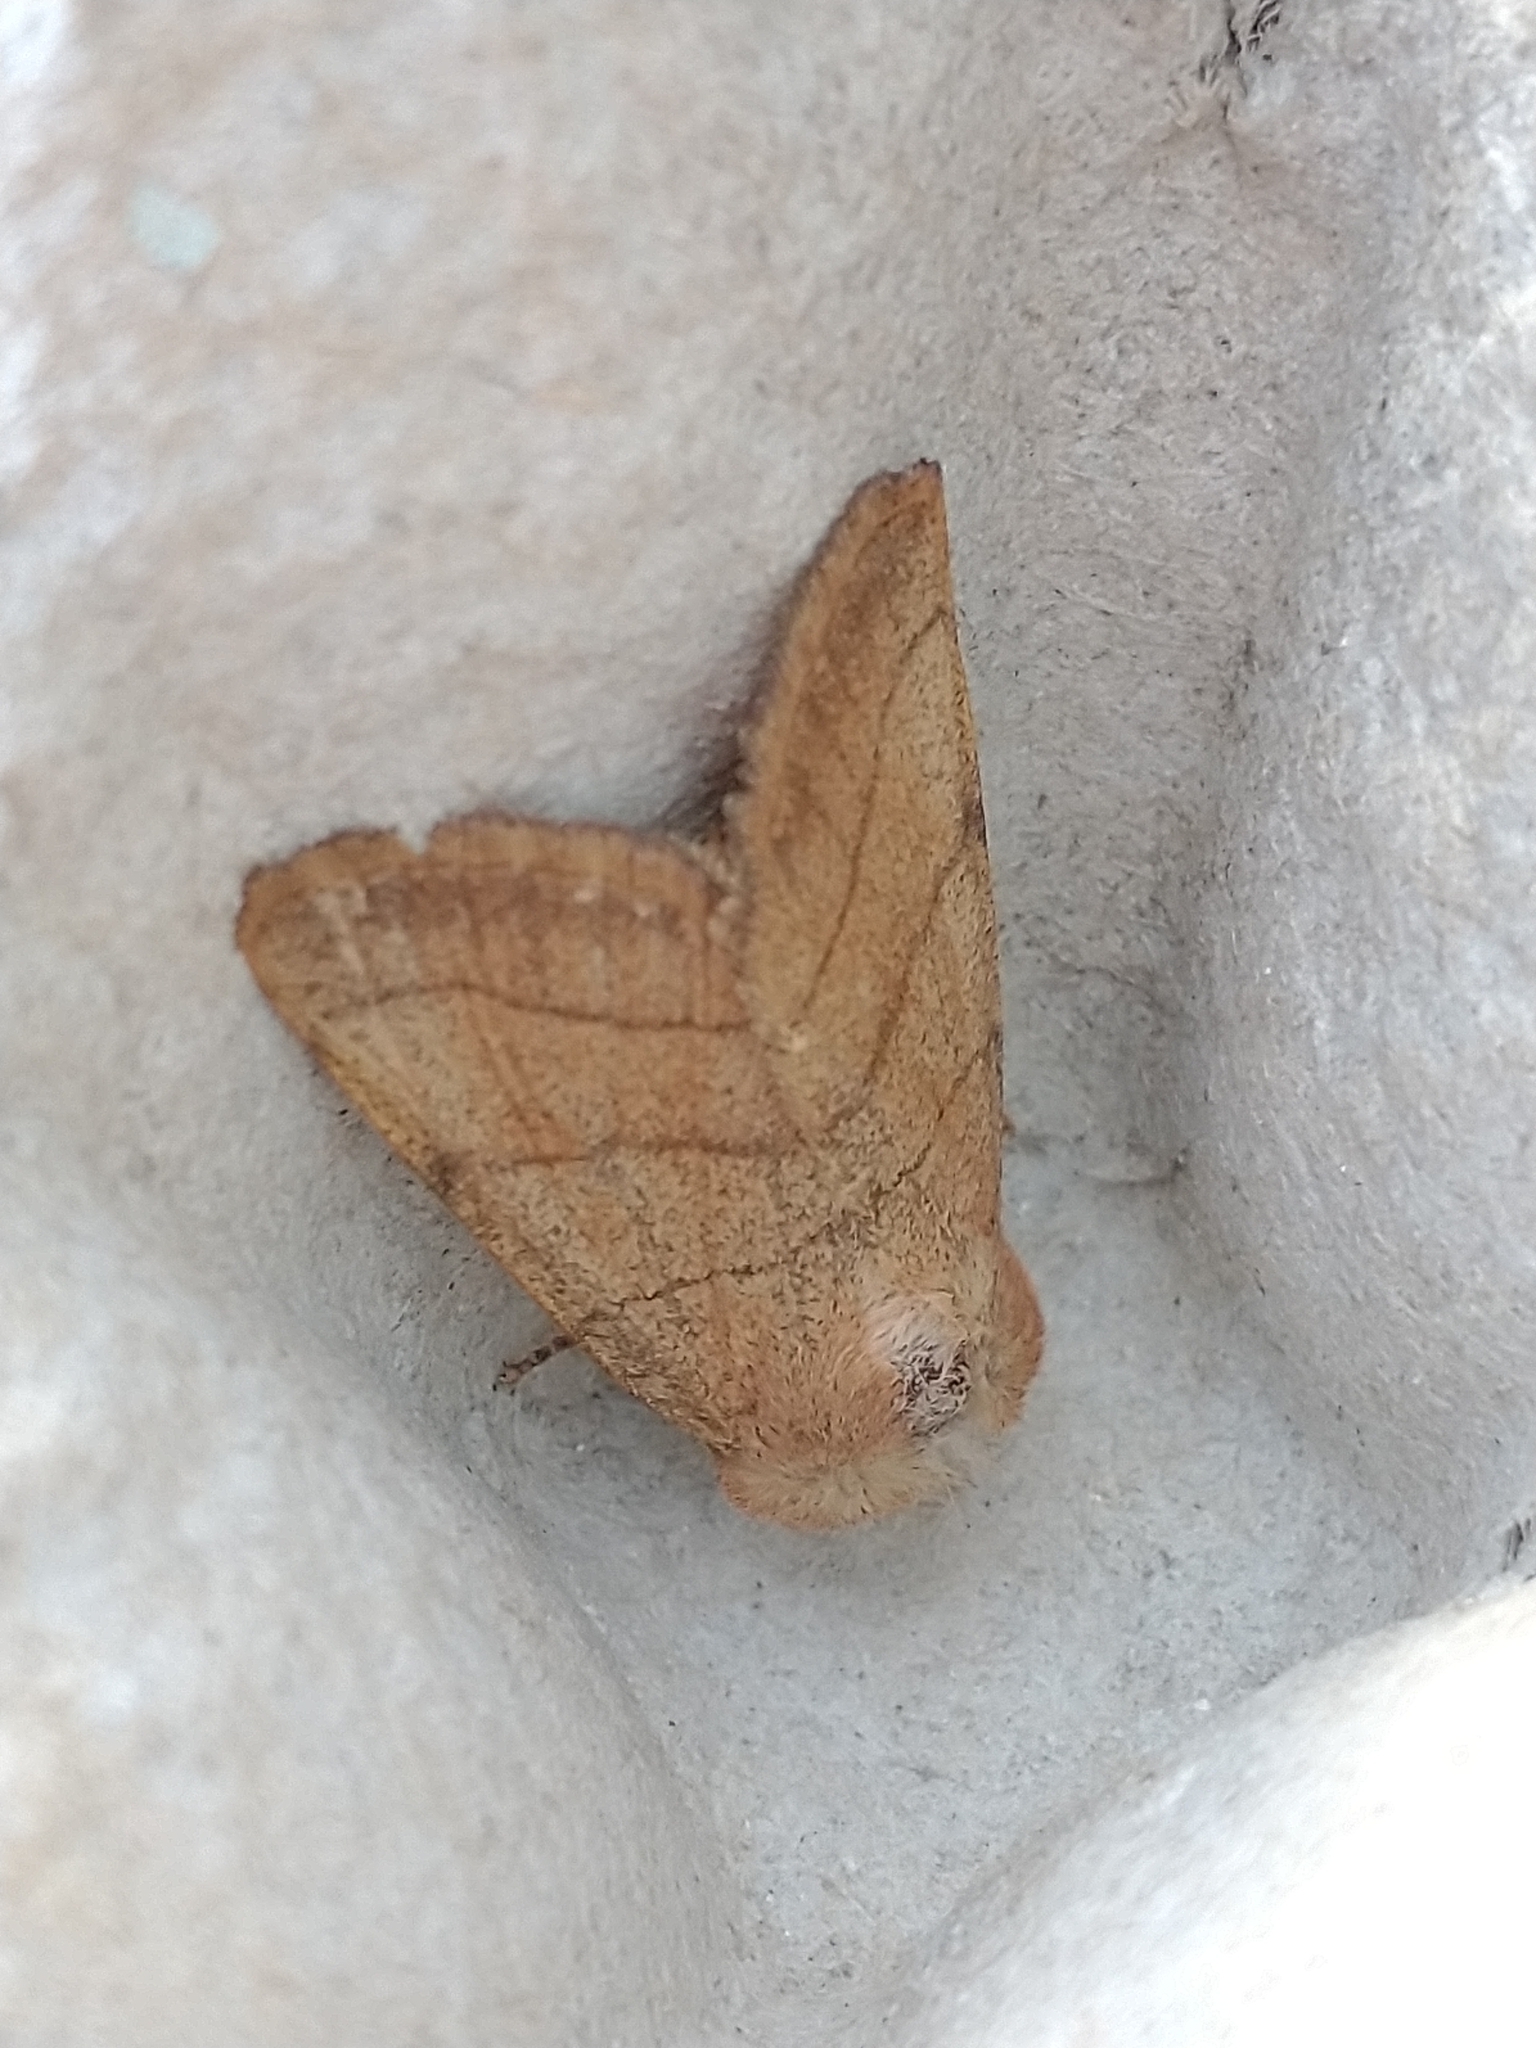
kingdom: Animalia
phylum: Arthropoda
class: Insecta
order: Lepidoptera
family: Noctuidae
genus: Charanyca
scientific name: Charanyca trigrammica
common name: Treble lines
